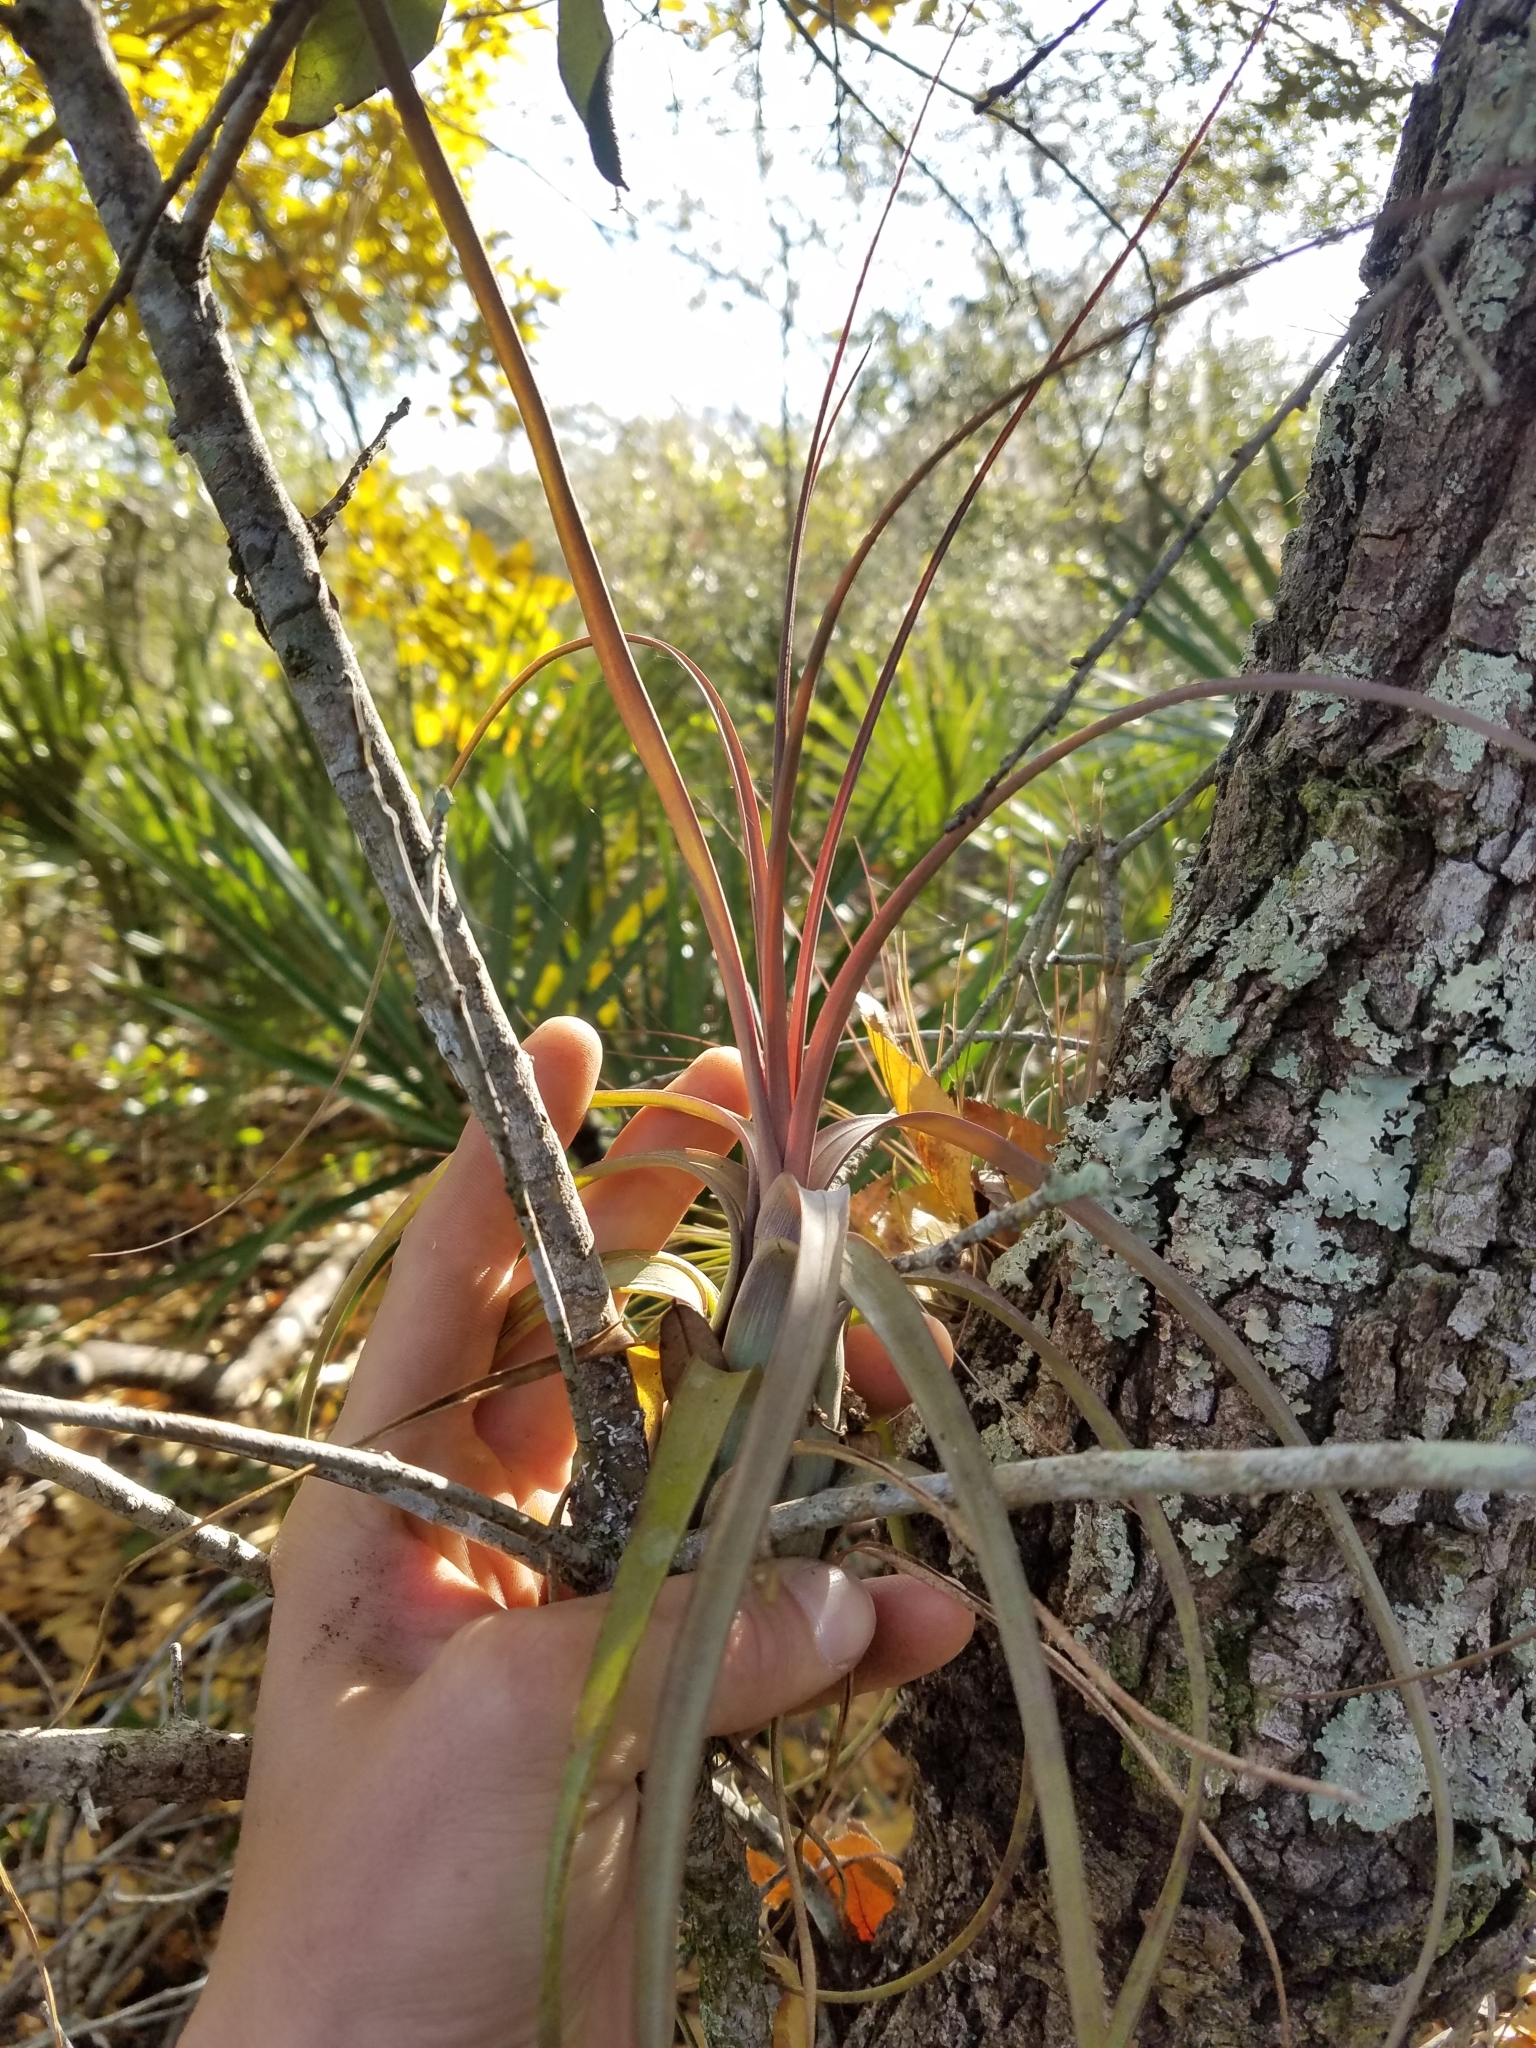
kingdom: Plantae
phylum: Tracheophyta
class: Liliopsida
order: Poales
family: Bromeliaceae
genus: Tillandsia
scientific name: Tillandsia balbisiana
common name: Northern needleleaf
